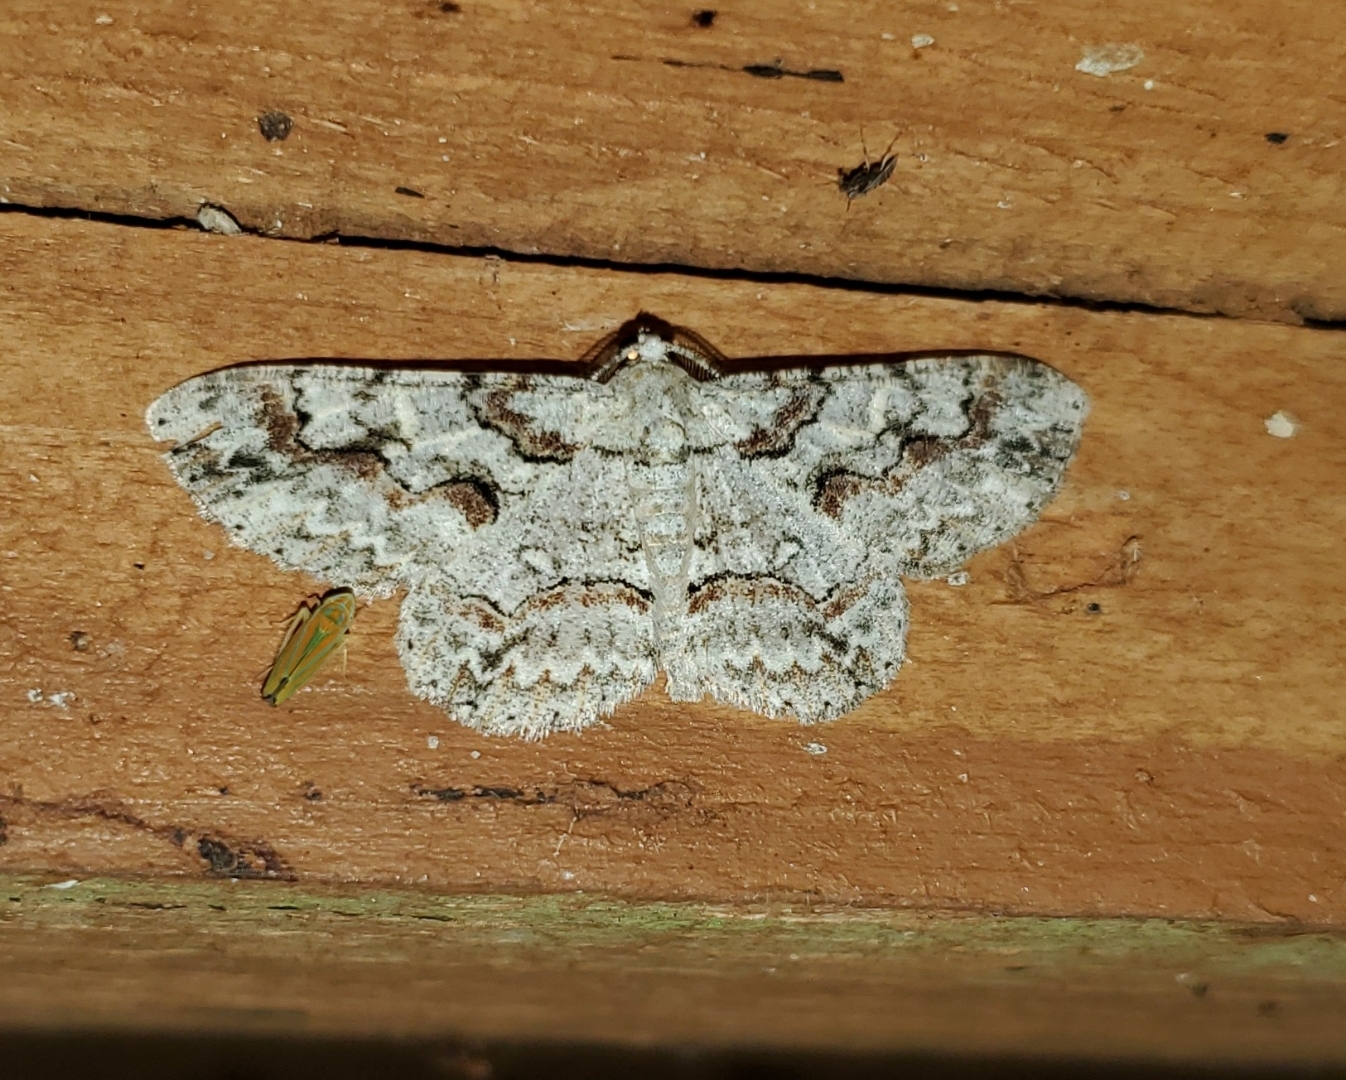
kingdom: Animalia
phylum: Arthropoda
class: Insecta
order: Lepidoptera
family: Geometridae
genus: Iridopsis
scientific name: Iridopsis defectaria
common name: Brown-shaded gray
